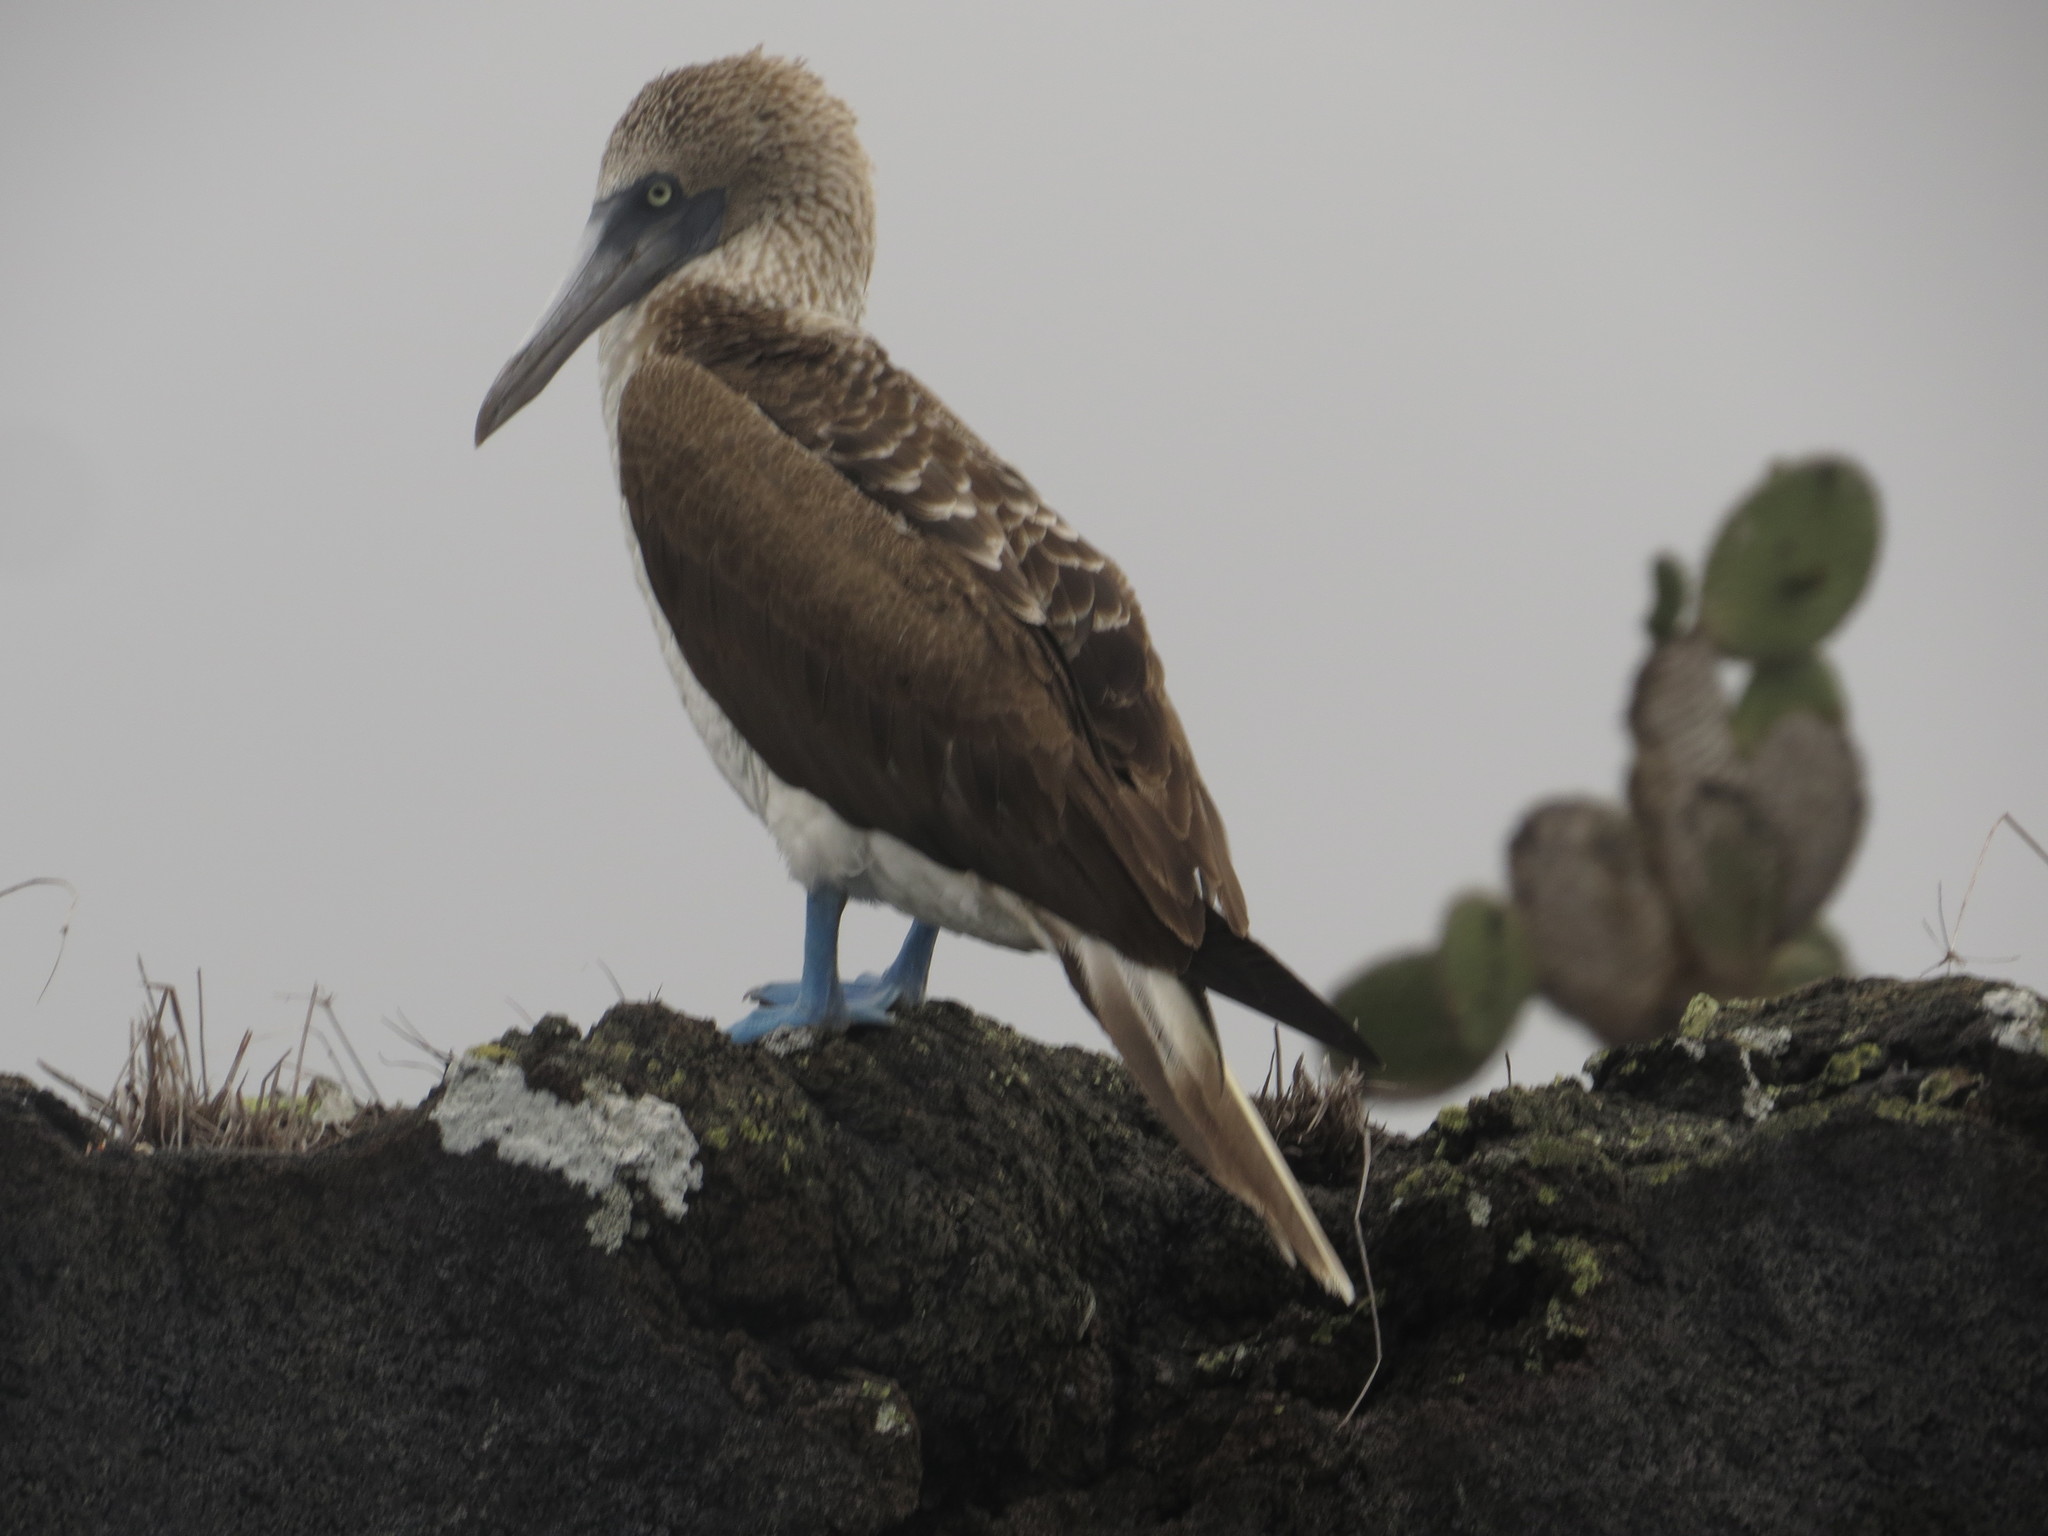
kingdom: Animalia
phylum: Chordata
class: Aves
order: Suliformes
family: Sulidae
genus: Sula
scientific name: Sula nebouxii
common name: Blue-footed booby
